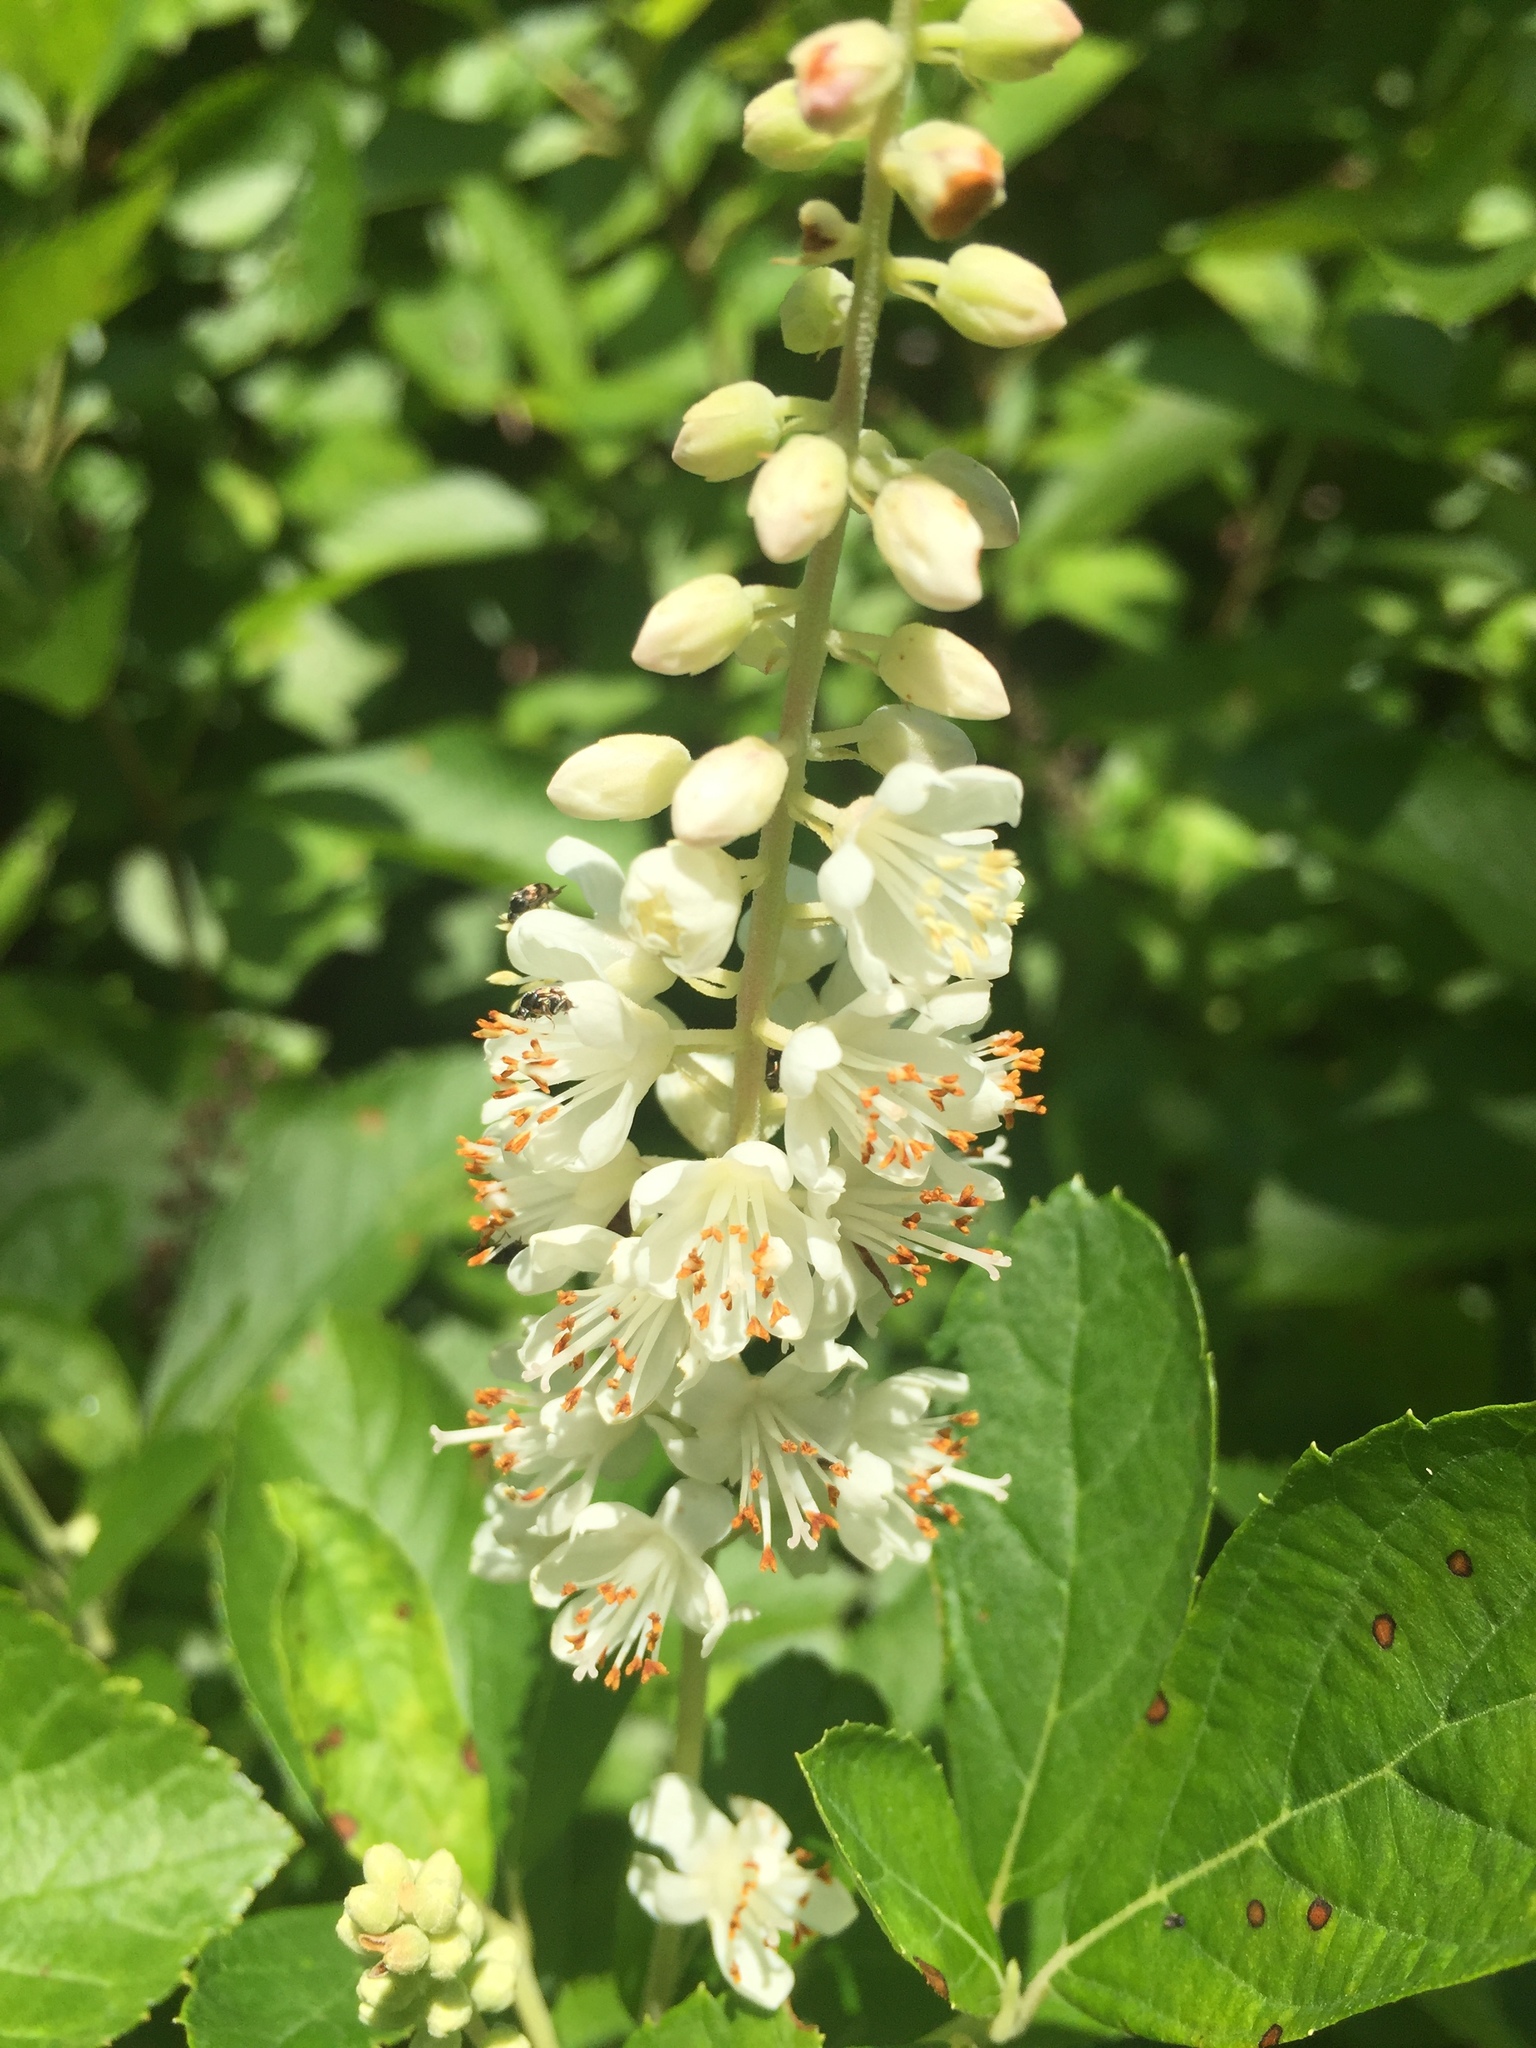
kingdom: Plantae
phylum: Tracheophyta
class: Magnoliopsida
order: Ericales
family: Clethraceae
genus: Clethra
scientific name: Clethra alnifolia
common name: Sweet pepperbush
